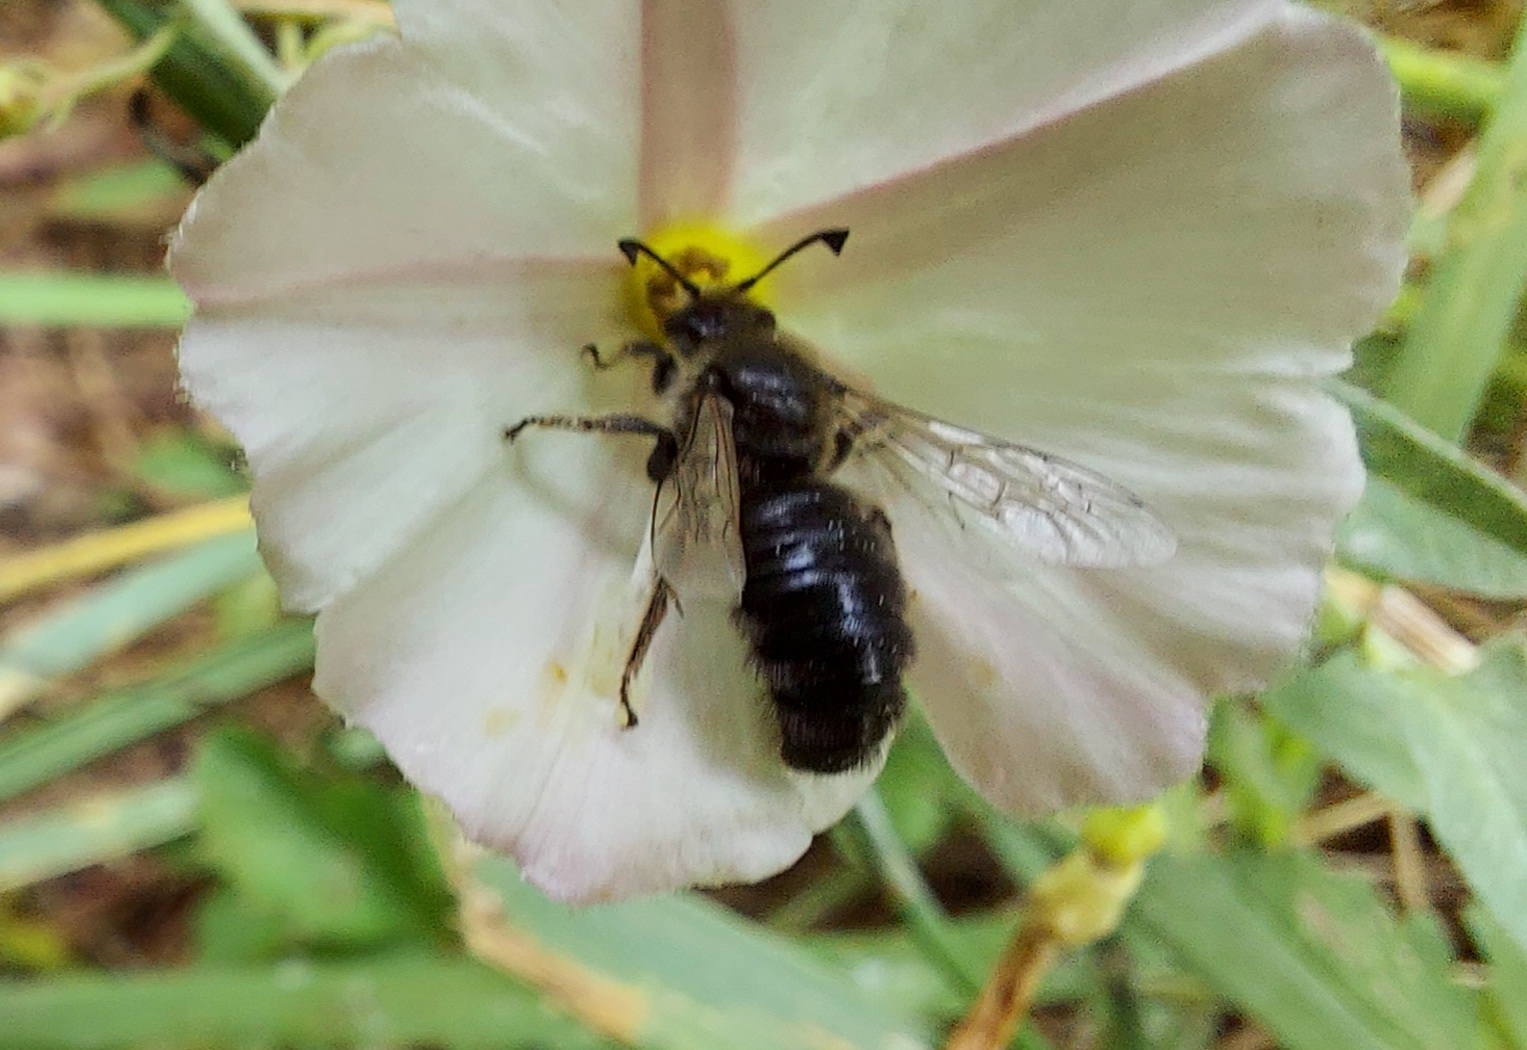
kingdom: Animalia
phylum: Arthropoda
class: Insecta
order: Hymenoptera
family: Halictidae
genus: Systropha
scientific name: Systropha curvicornis
